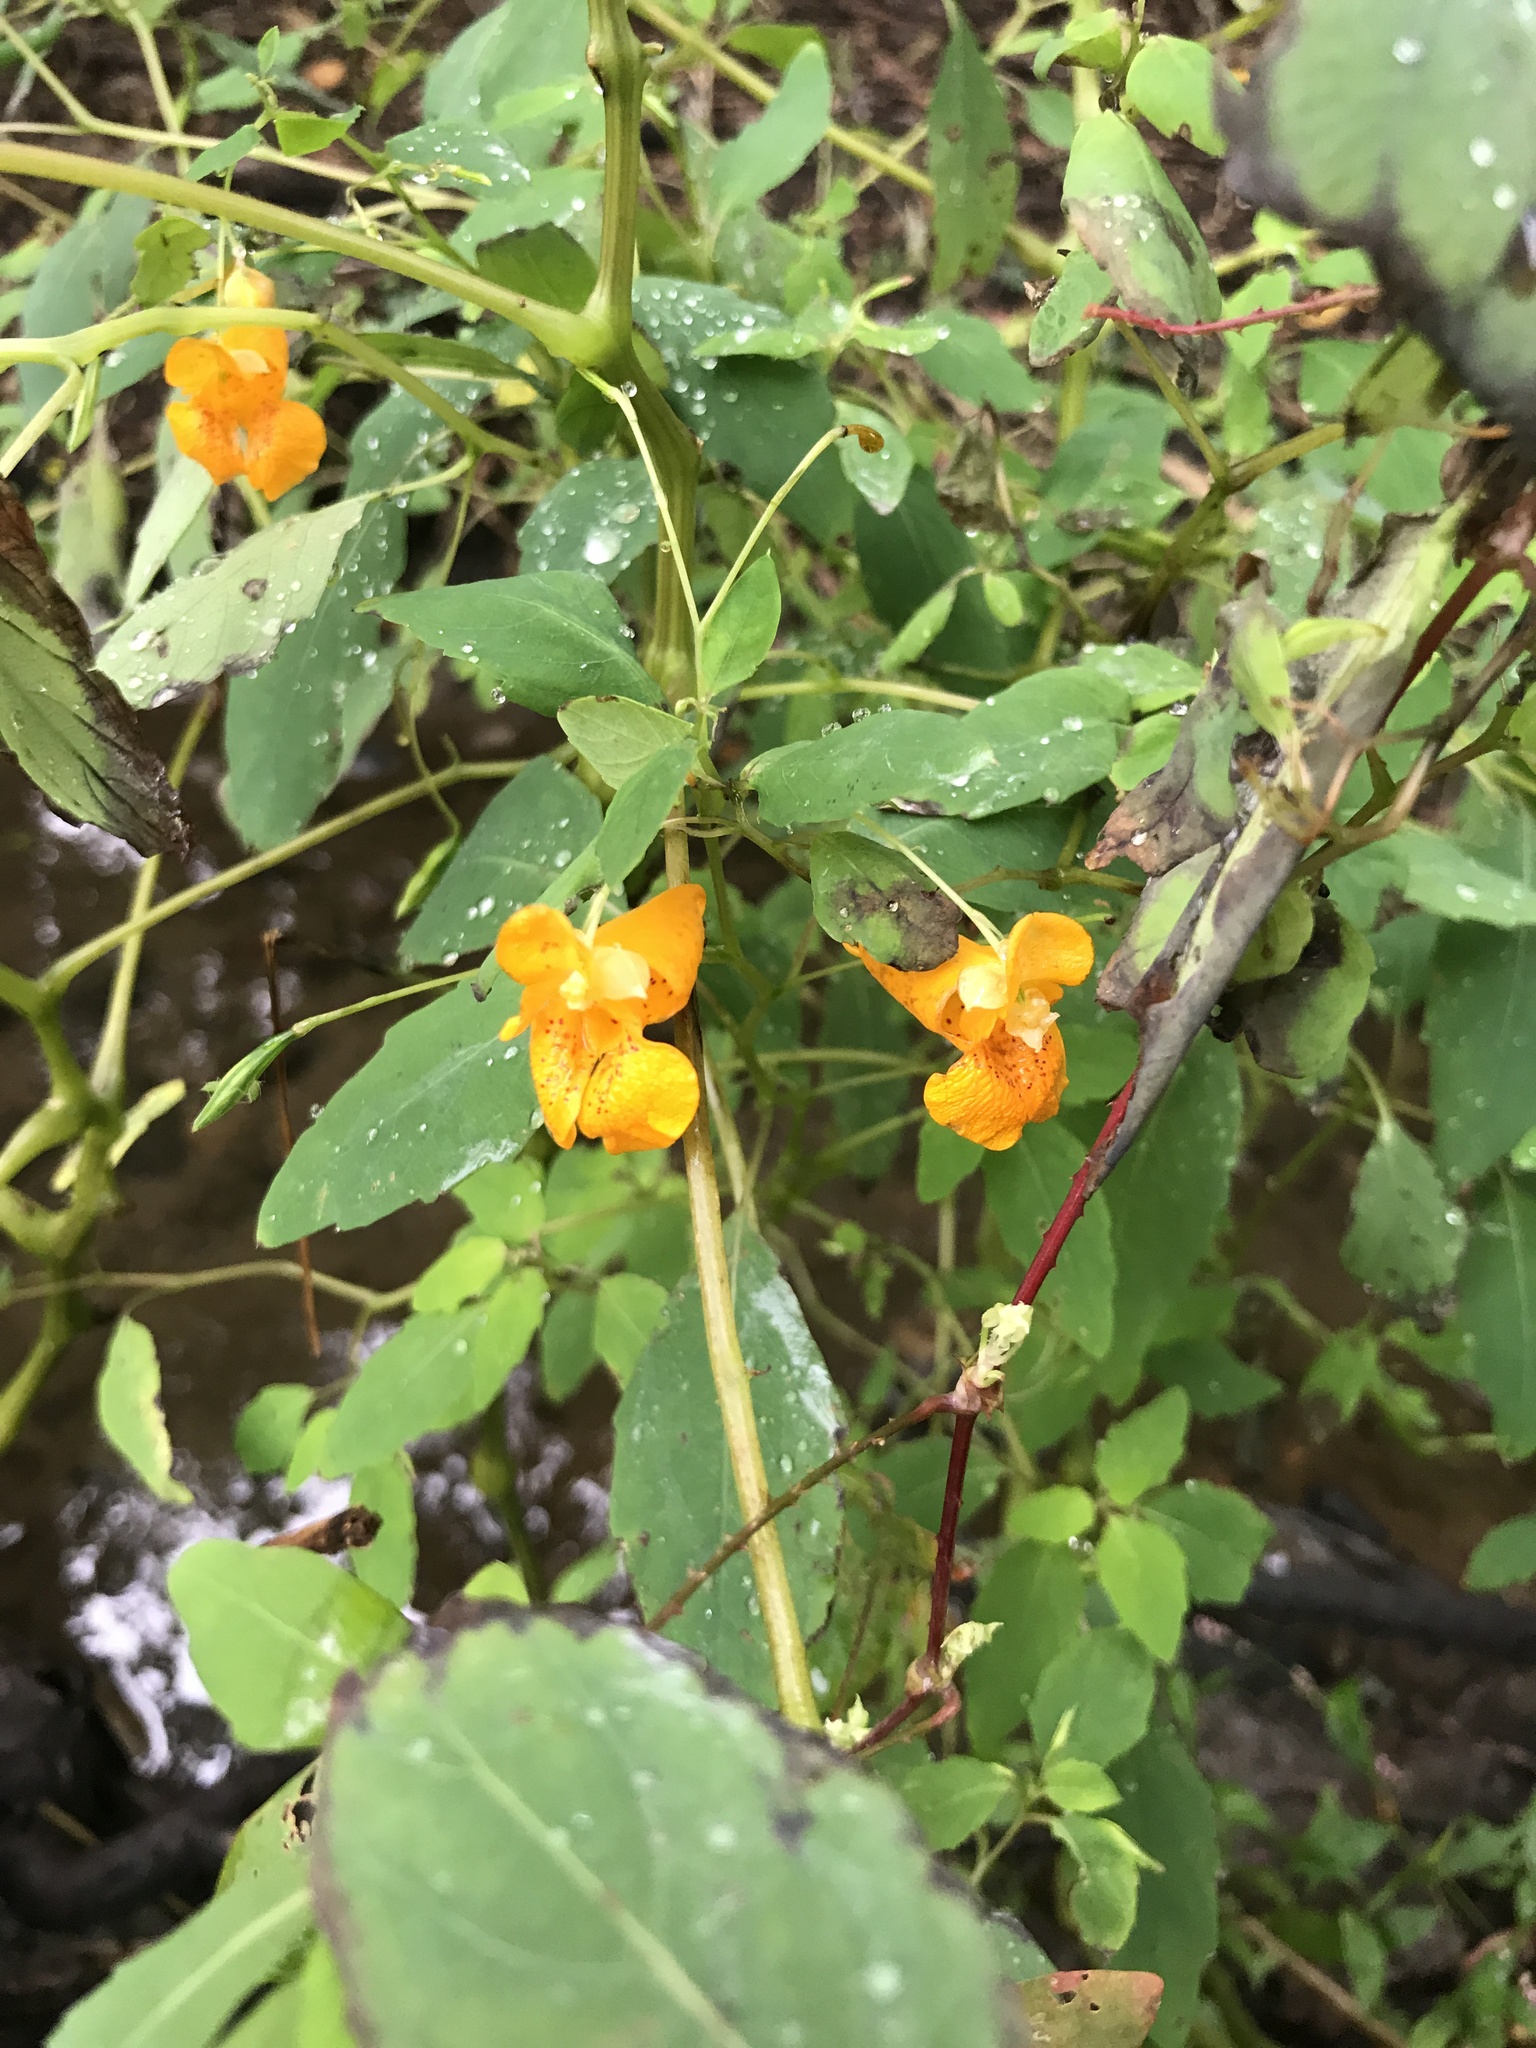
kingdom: Plantae
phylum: Tracheophyta
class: Magnoliopsida
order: Ericales
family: Balsaminaceae
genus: Impatiens
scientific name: Impatiens capensis
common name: Orange balsam
